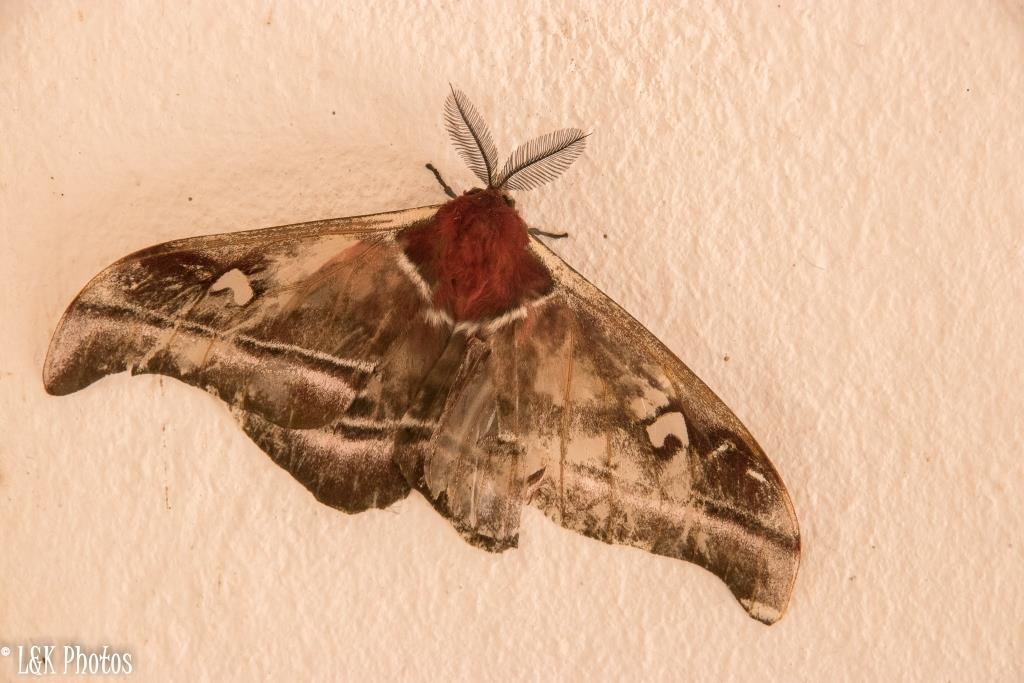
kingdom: Animalia
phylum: Arthropoda
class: Insecta
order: Lepidoptera
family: Saturniidae
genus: Bunaea
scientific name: Bunaea aslauga
